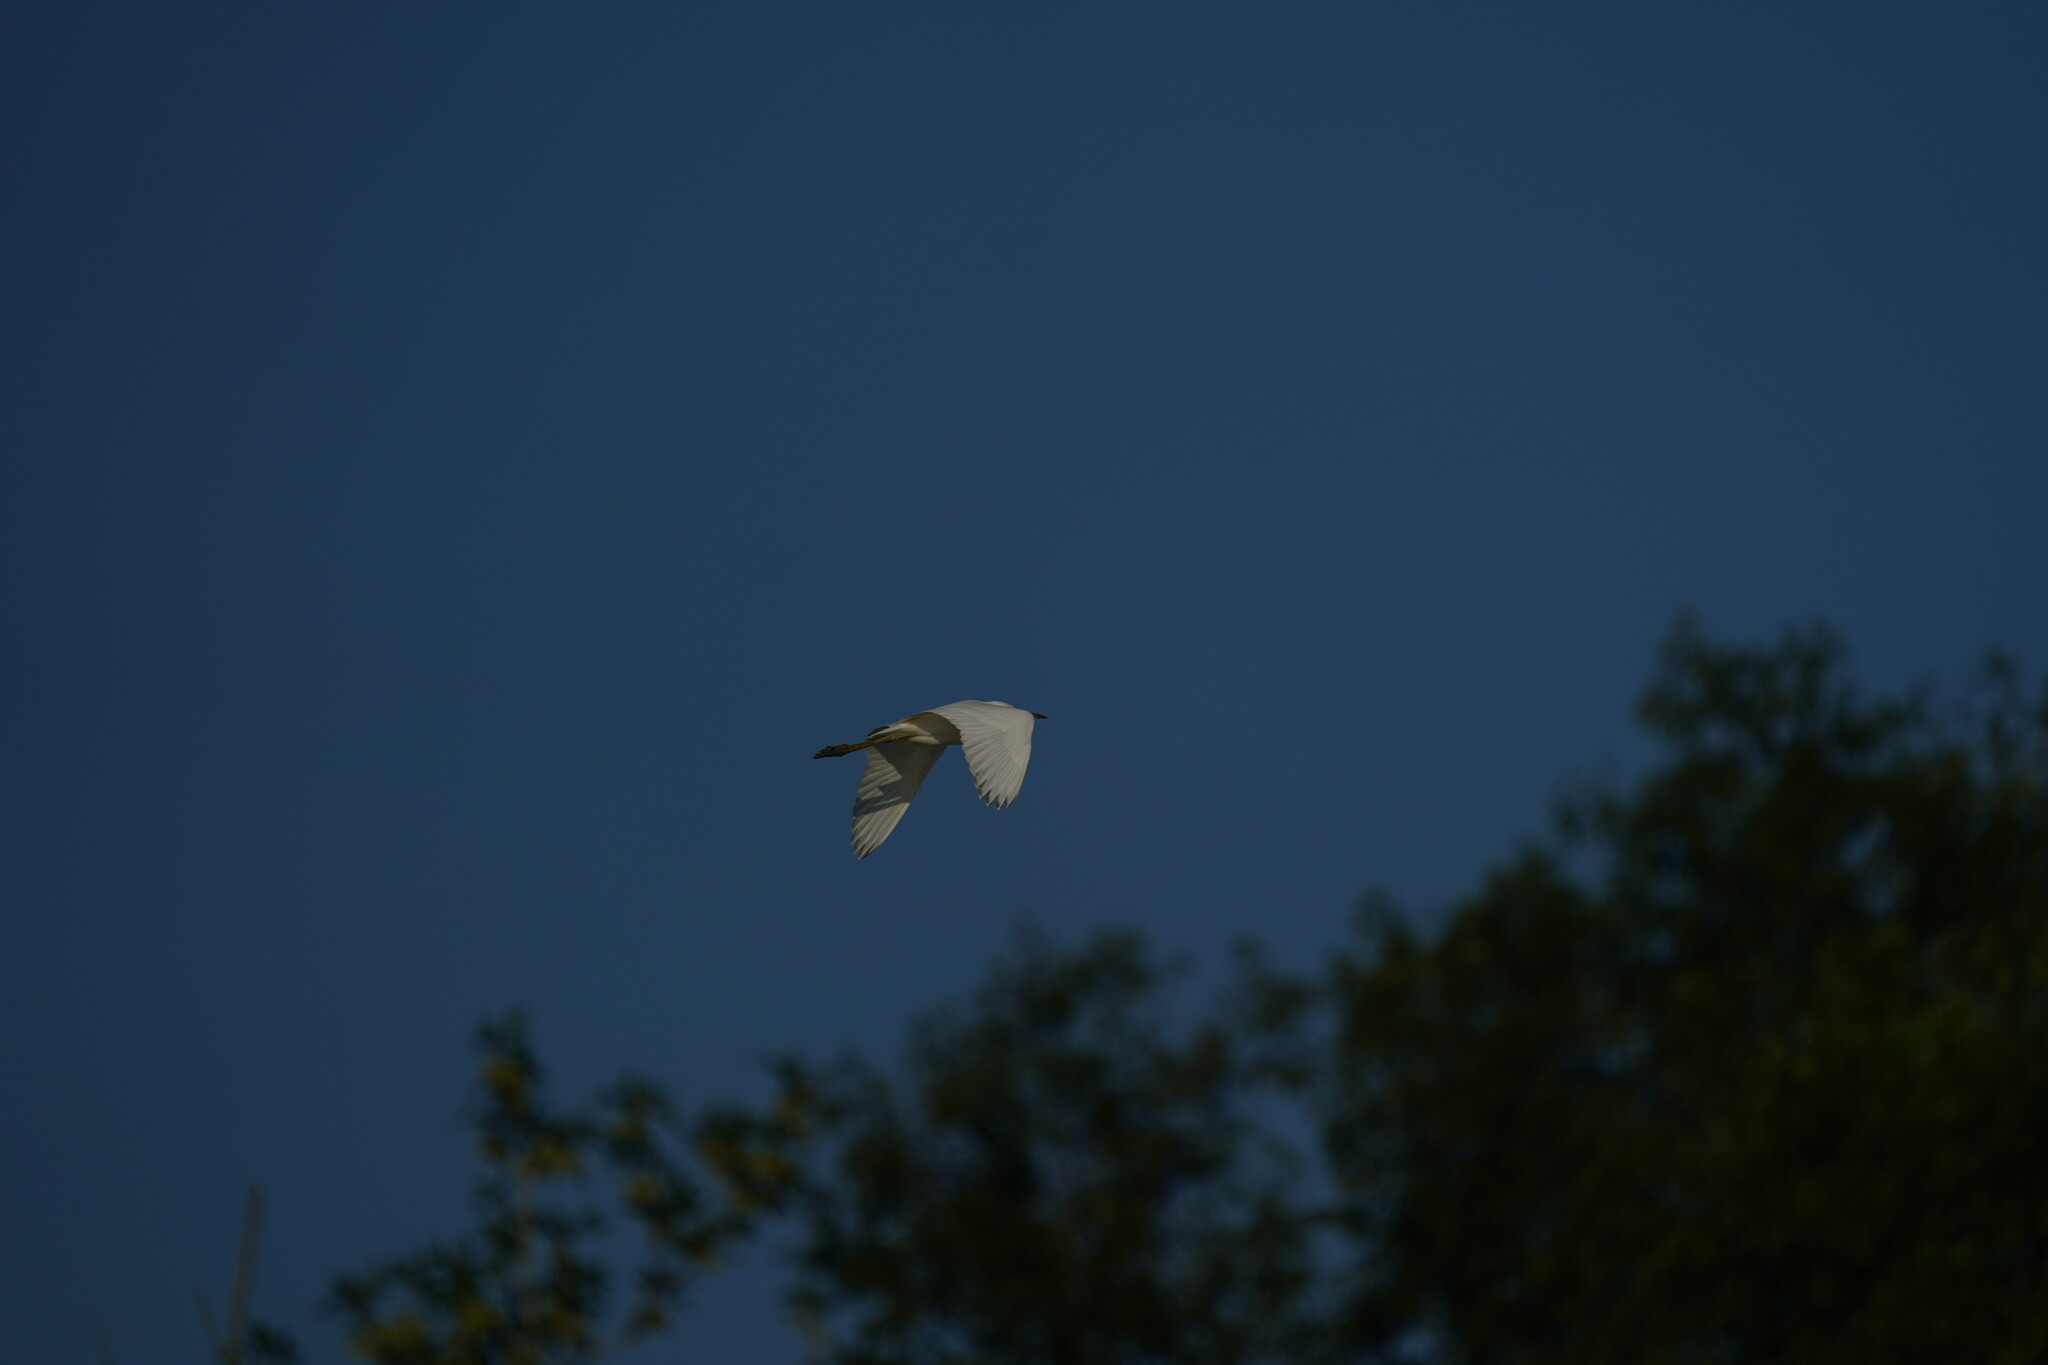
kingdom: Animalia
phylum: Chordata
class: Aves
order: Pelecaniformes
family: Ardeidae
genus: Ardea
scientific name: Ardea alba
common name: Great egret
